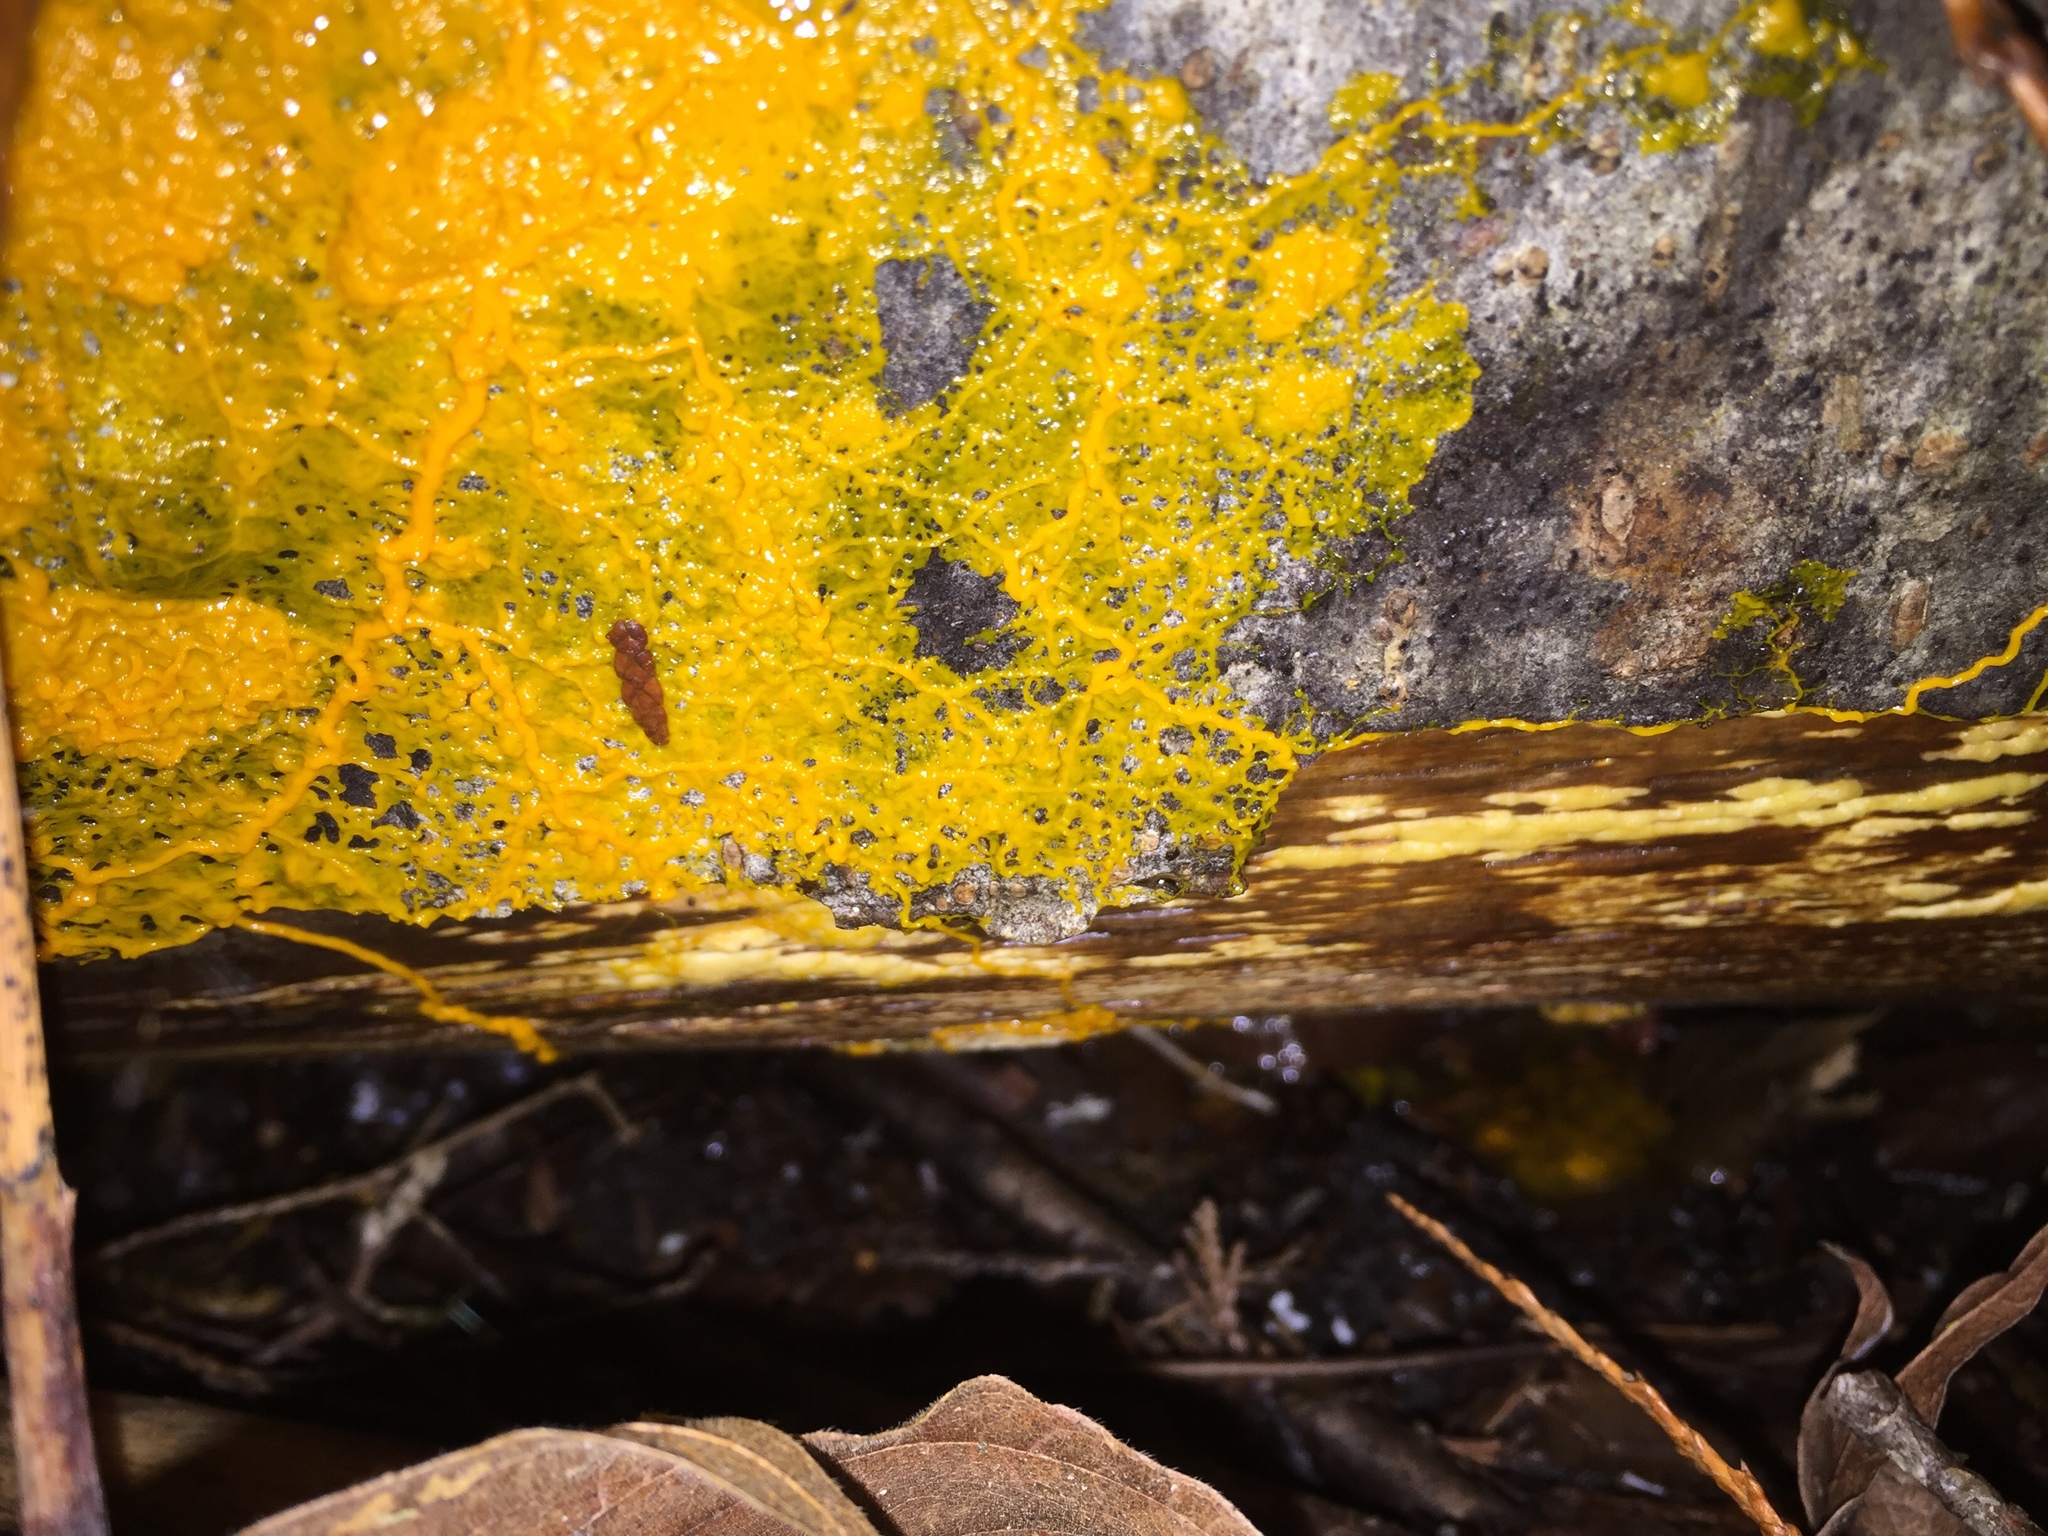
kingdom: Protozoa
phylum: Mycetozoa
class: Myxomycetes
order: Physarales
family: Physaraceae
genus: Badhamia
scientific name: Badhamia utricularis
